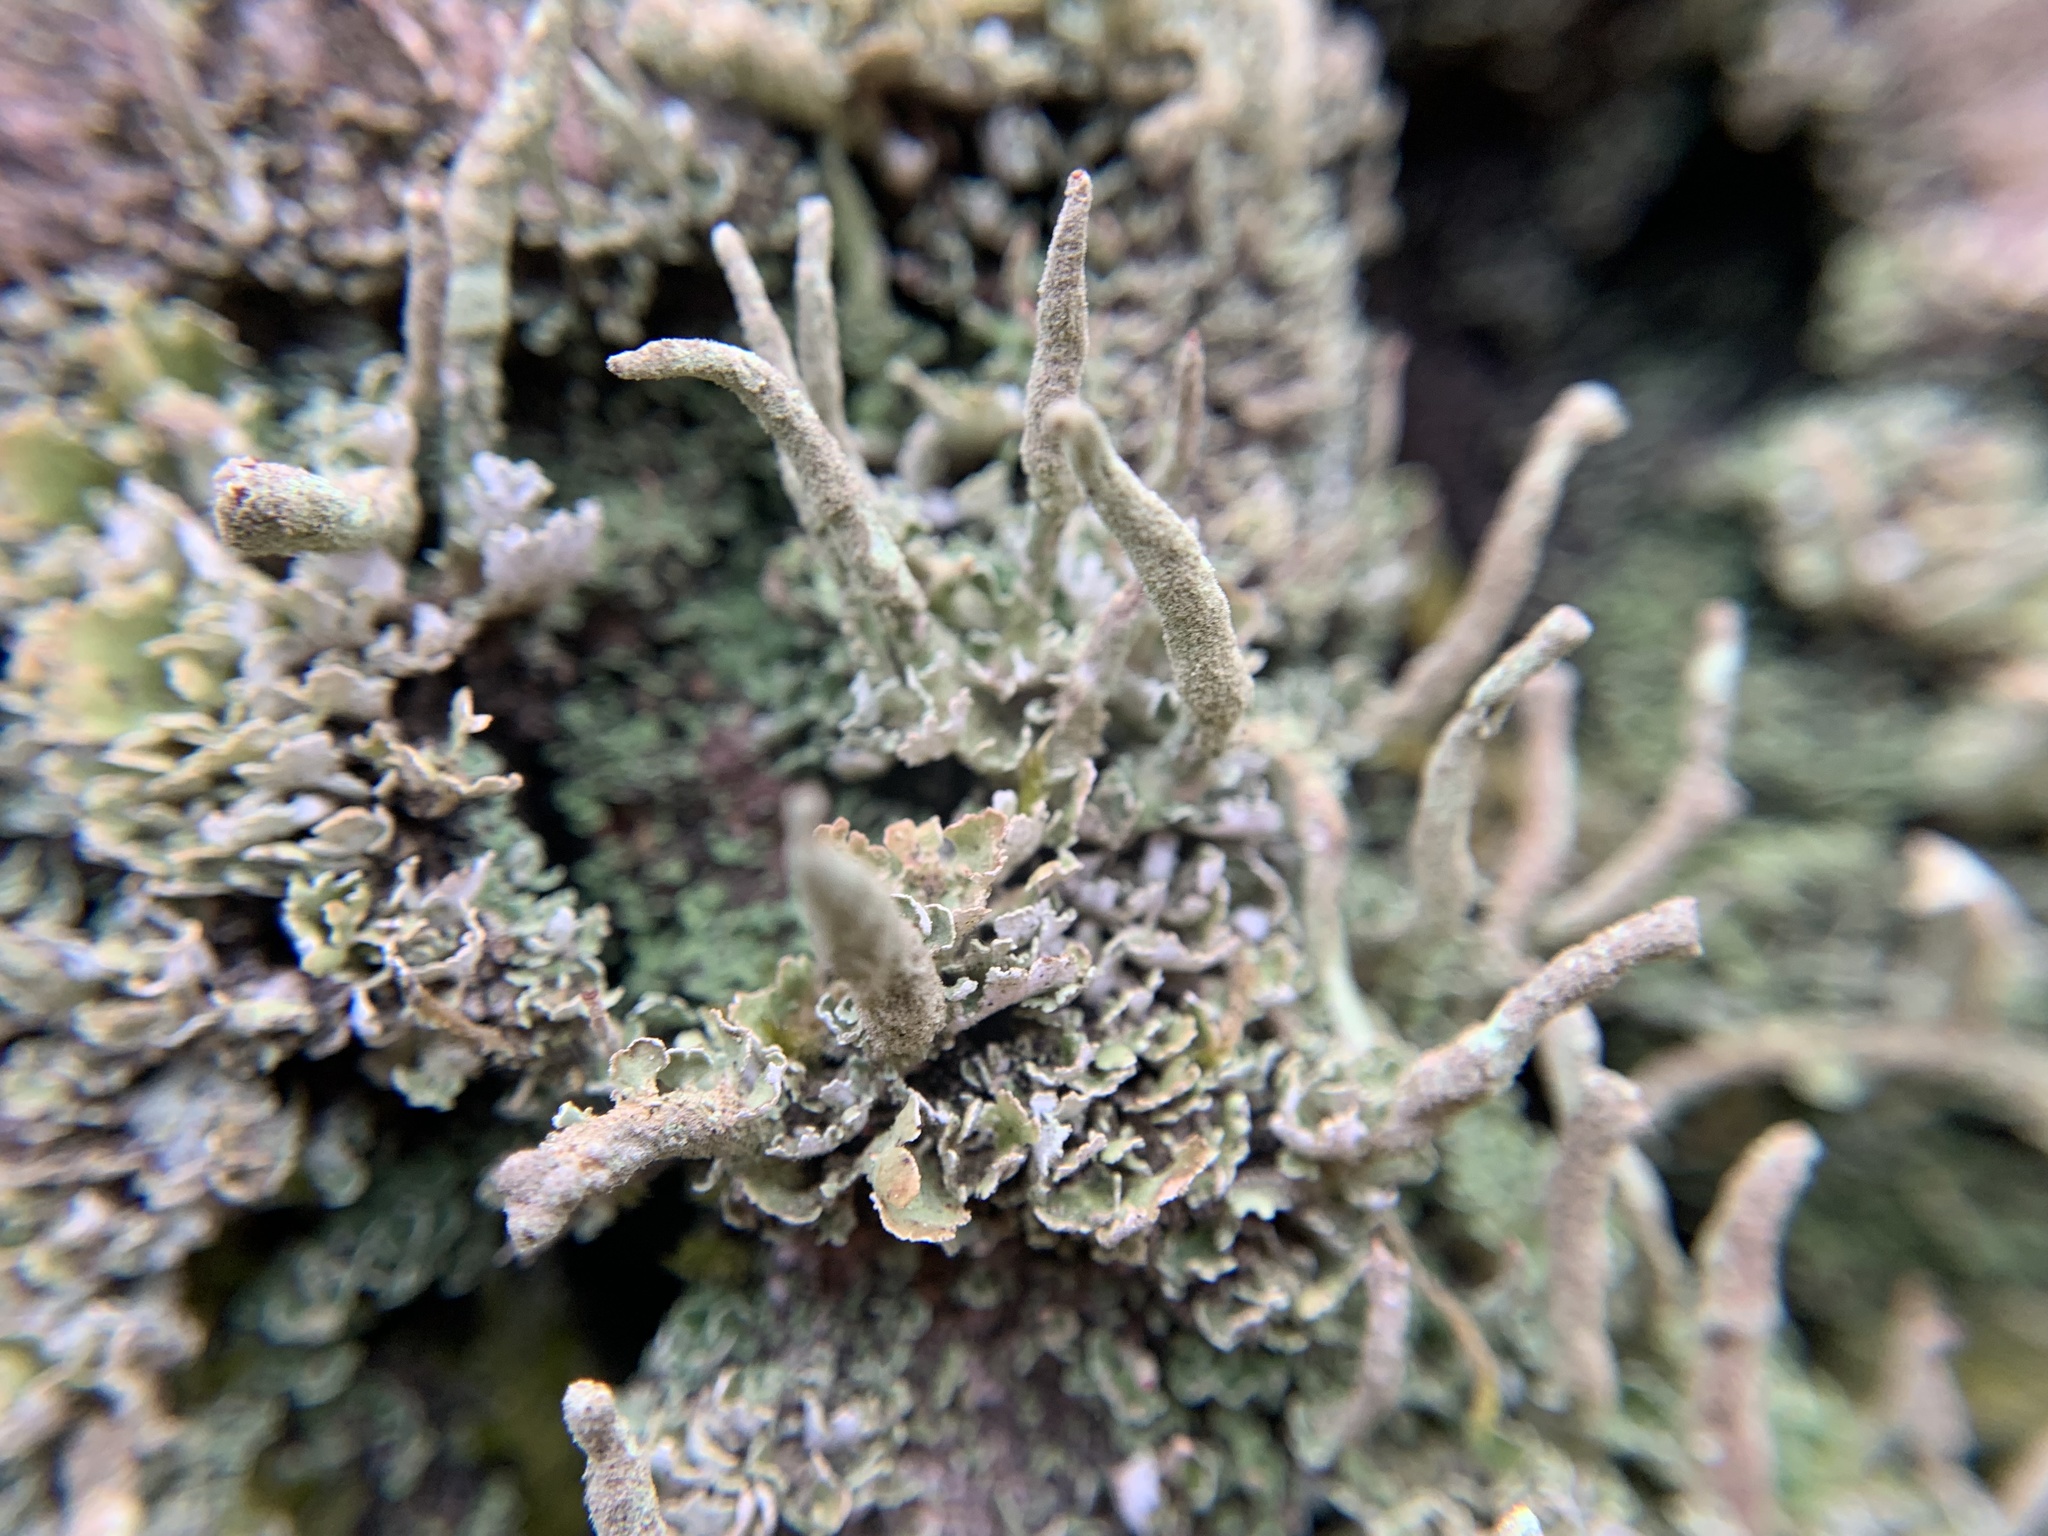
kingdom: Fungi
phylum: Ascomycota
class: Lecanoromycetes
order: Lecanorales
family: Cladoniaceae
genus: Cladonia
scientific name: Cladonia coniocraea
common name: Common powderhorn
